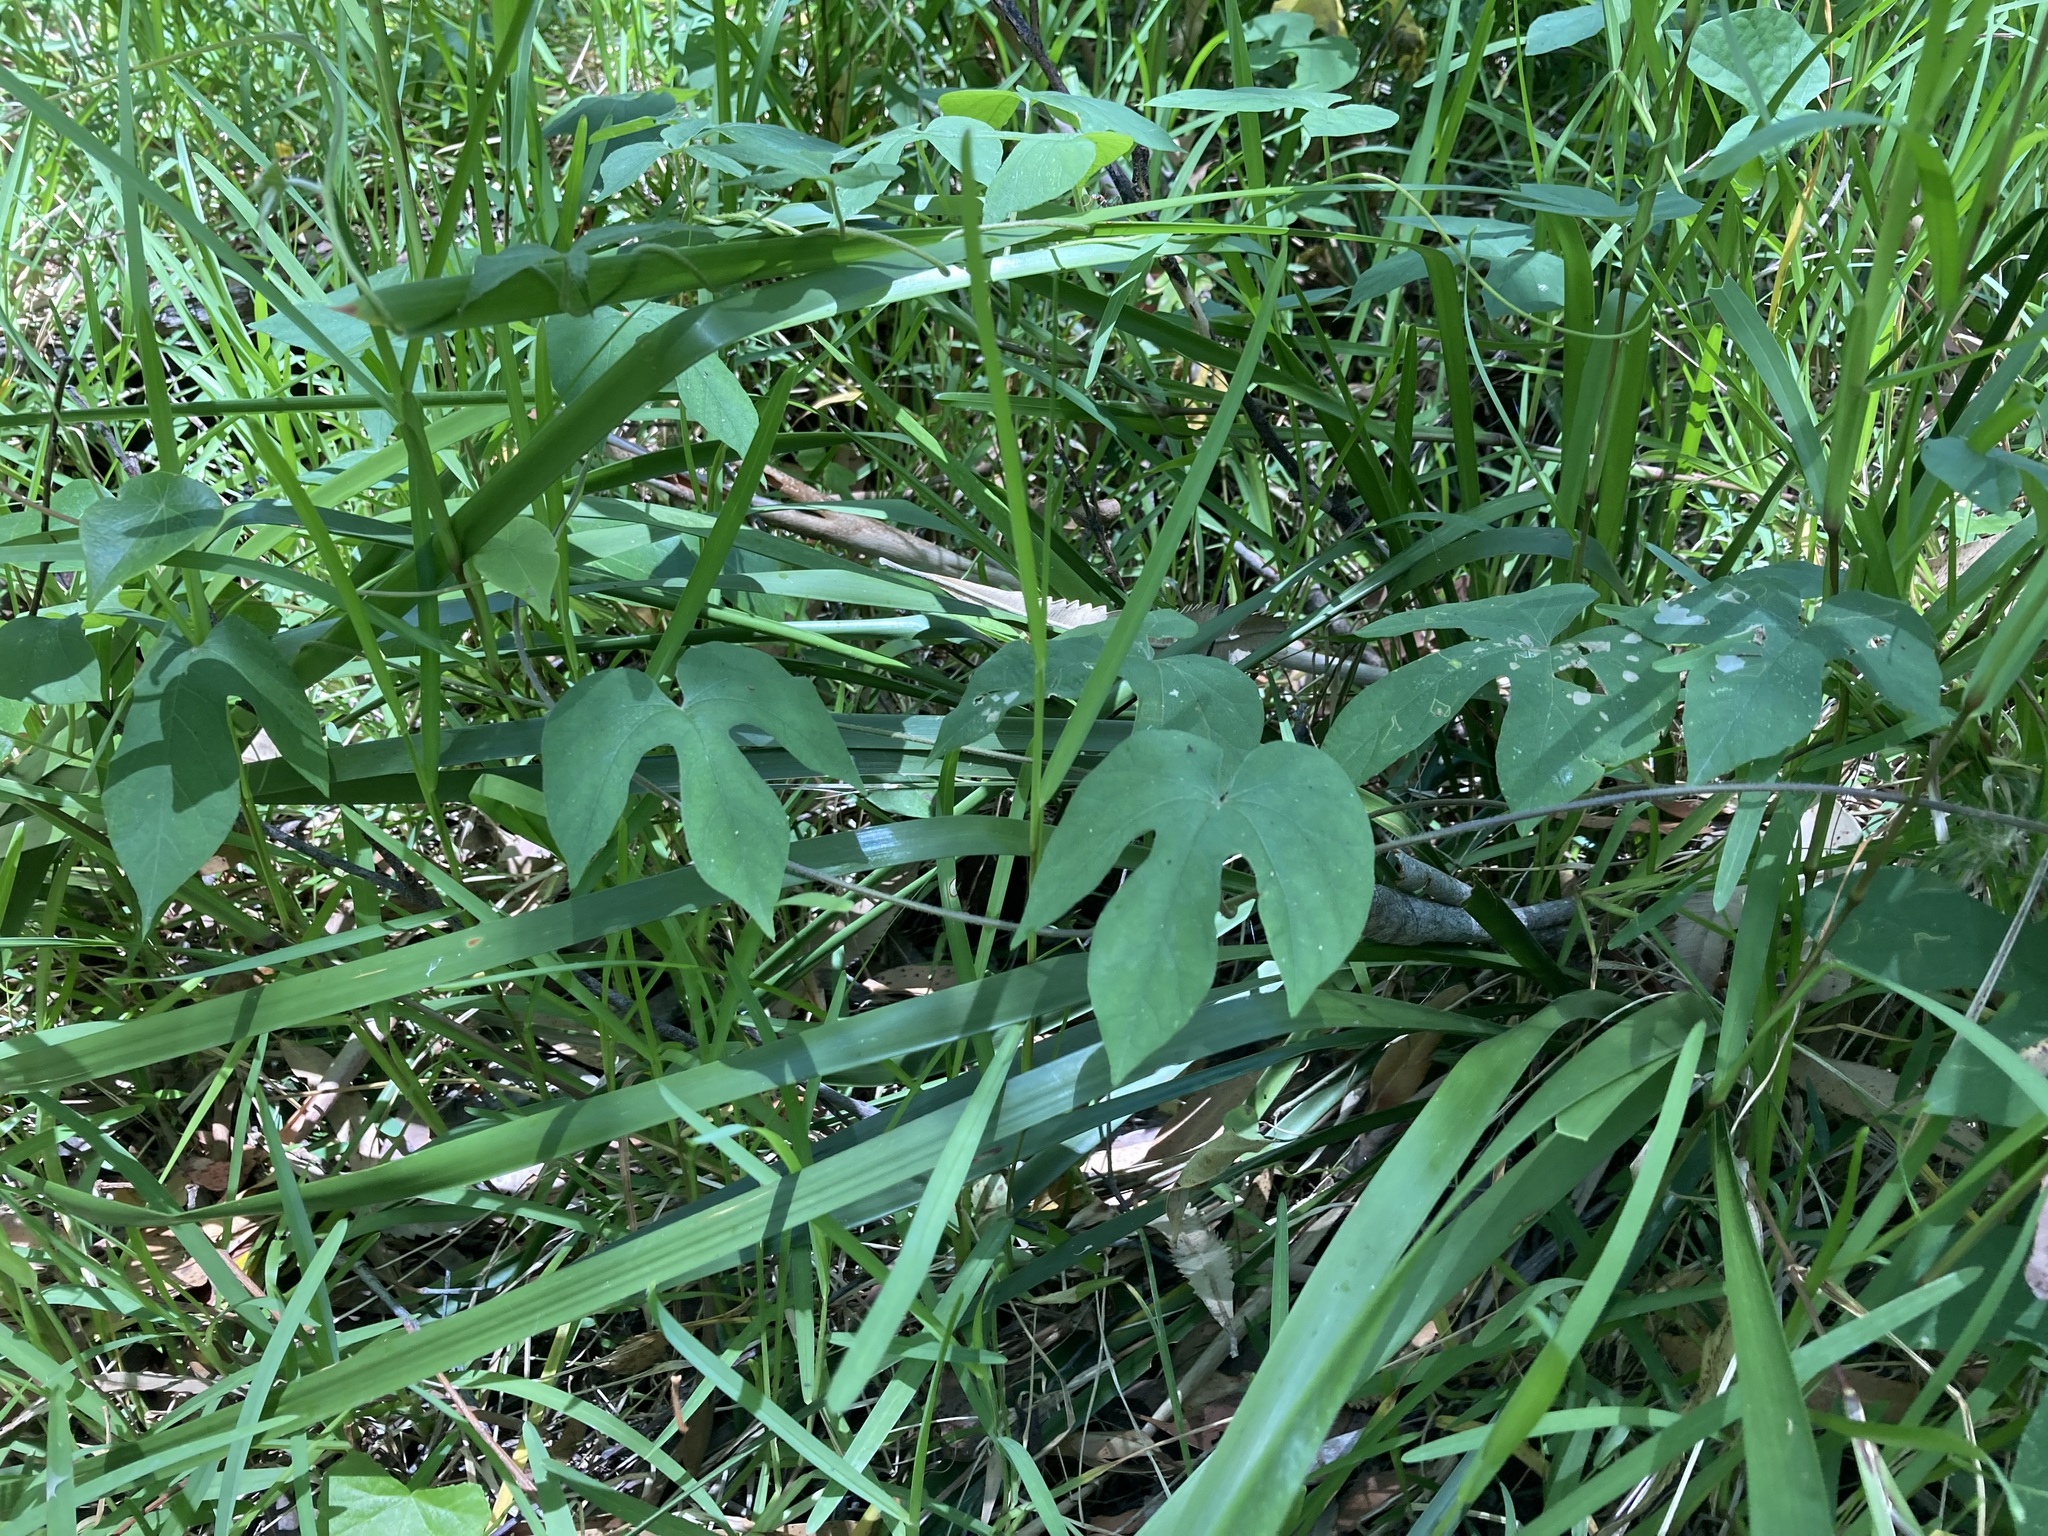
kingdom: Plantae
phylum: Tracheophyta
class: Magnoliopsida
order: Solanales
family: Convolvulaceae
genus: Ipomoea
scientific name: Ipomoea indica
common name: Blue dawnflower
